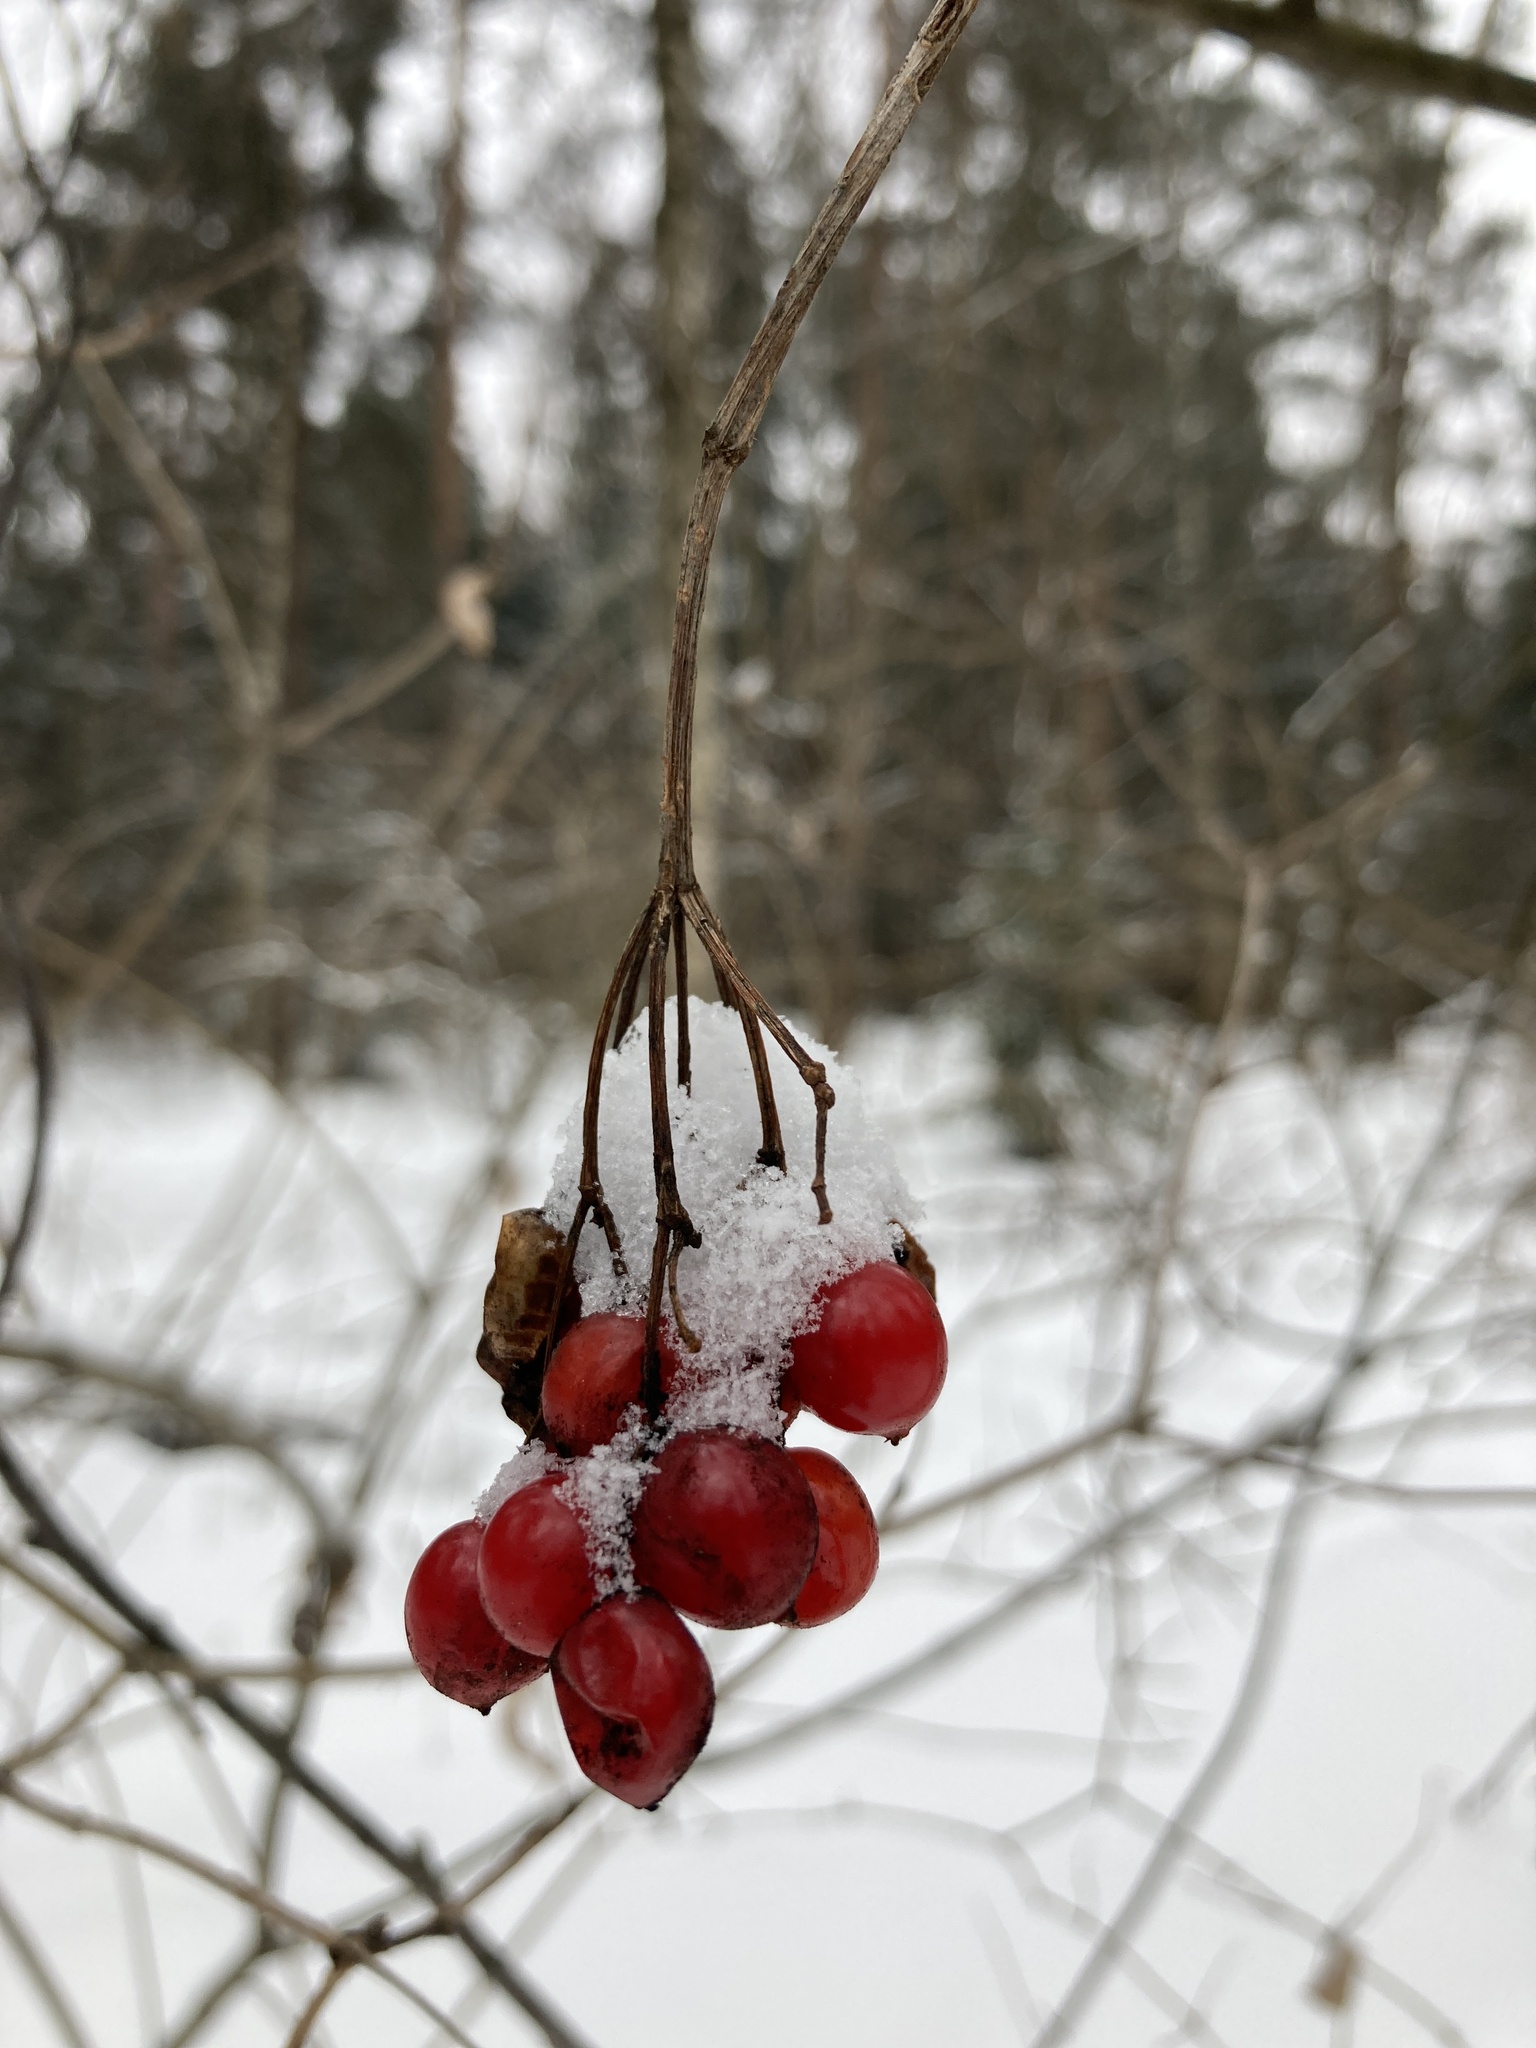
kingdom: Plantae
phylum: Tracheophyta
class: Magnoliopsida
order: Dipsacales
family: Viburnaceae
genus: Viburnum
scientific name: Viburnum opulus
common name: Guelder-rose
